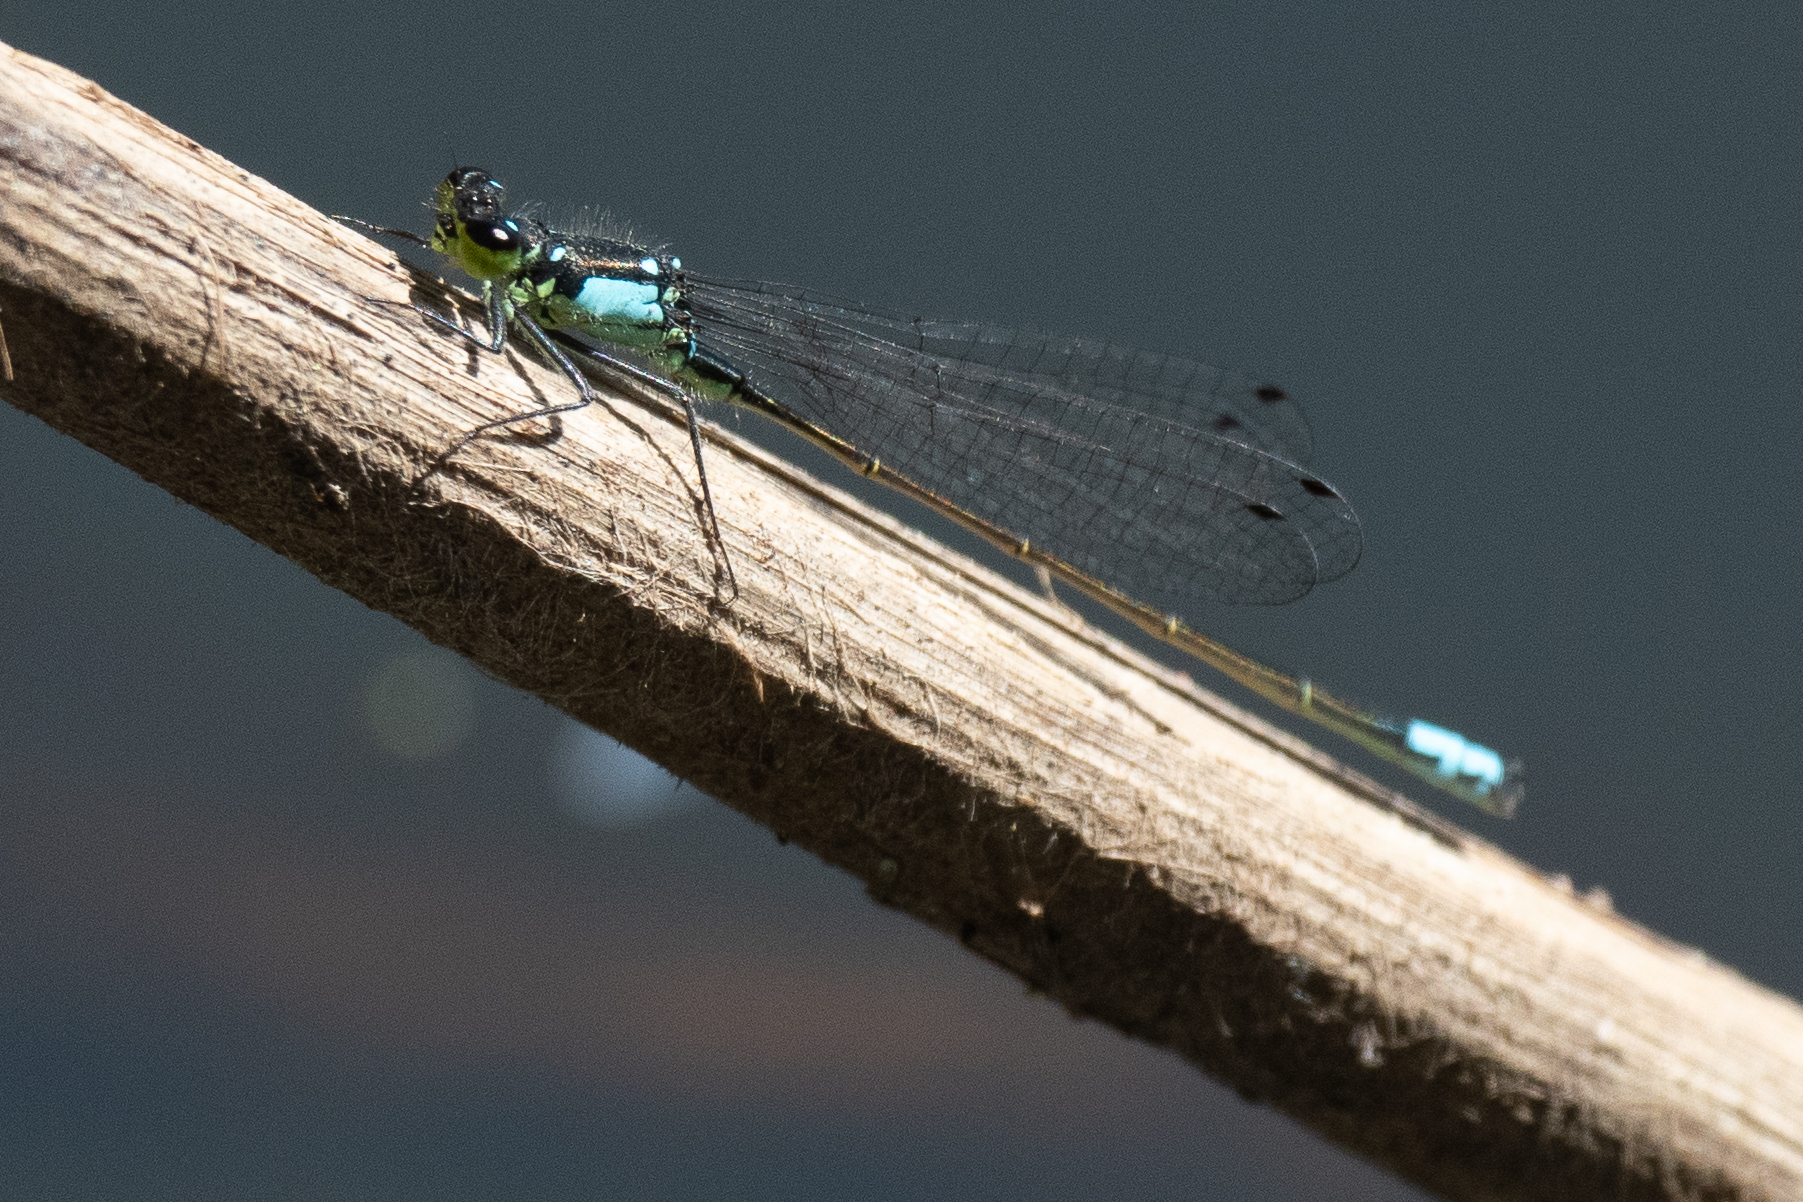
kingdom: Animalia
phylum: Arthropoda
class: Insecta
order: Odonata
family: Coenagrionidae
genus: Ischnura
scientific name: Ischnura cervula
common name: Pacific forktail
